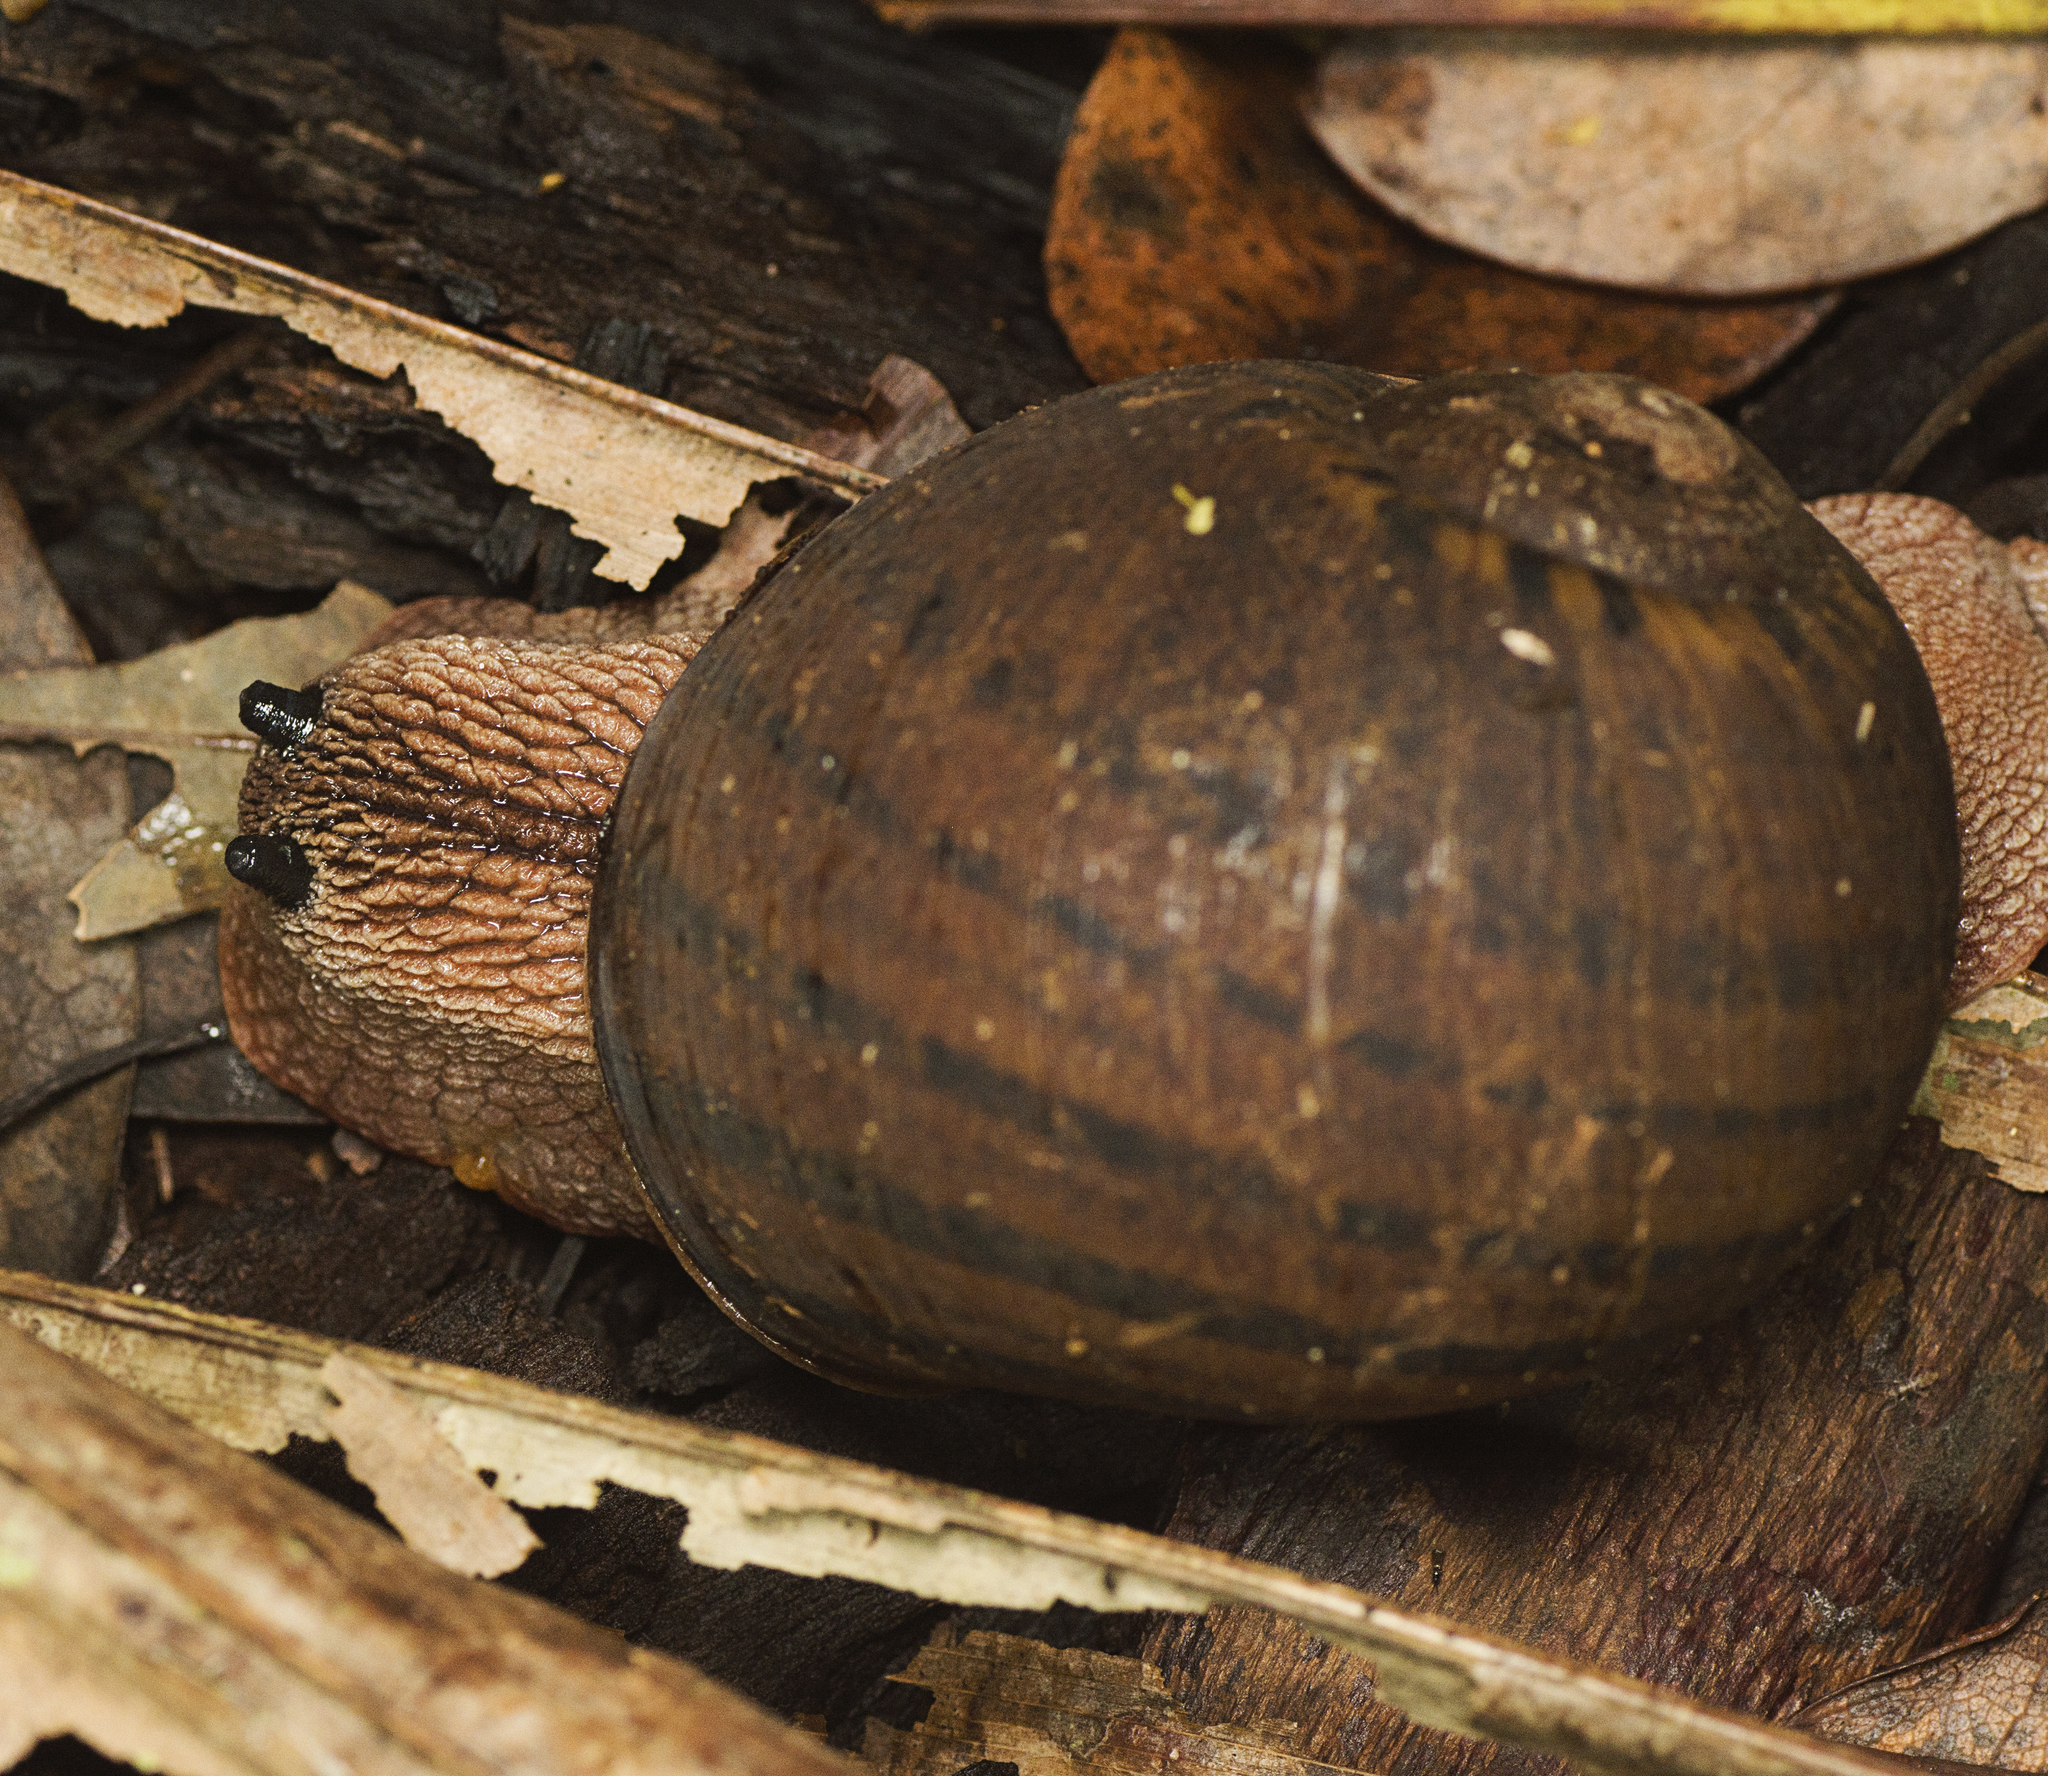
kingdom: Animalia
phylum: Mollusca
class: Gastropoda
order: Stylommatophora
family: Caryodidae
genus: Hedleyella
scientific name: Hedleyella falconeri
